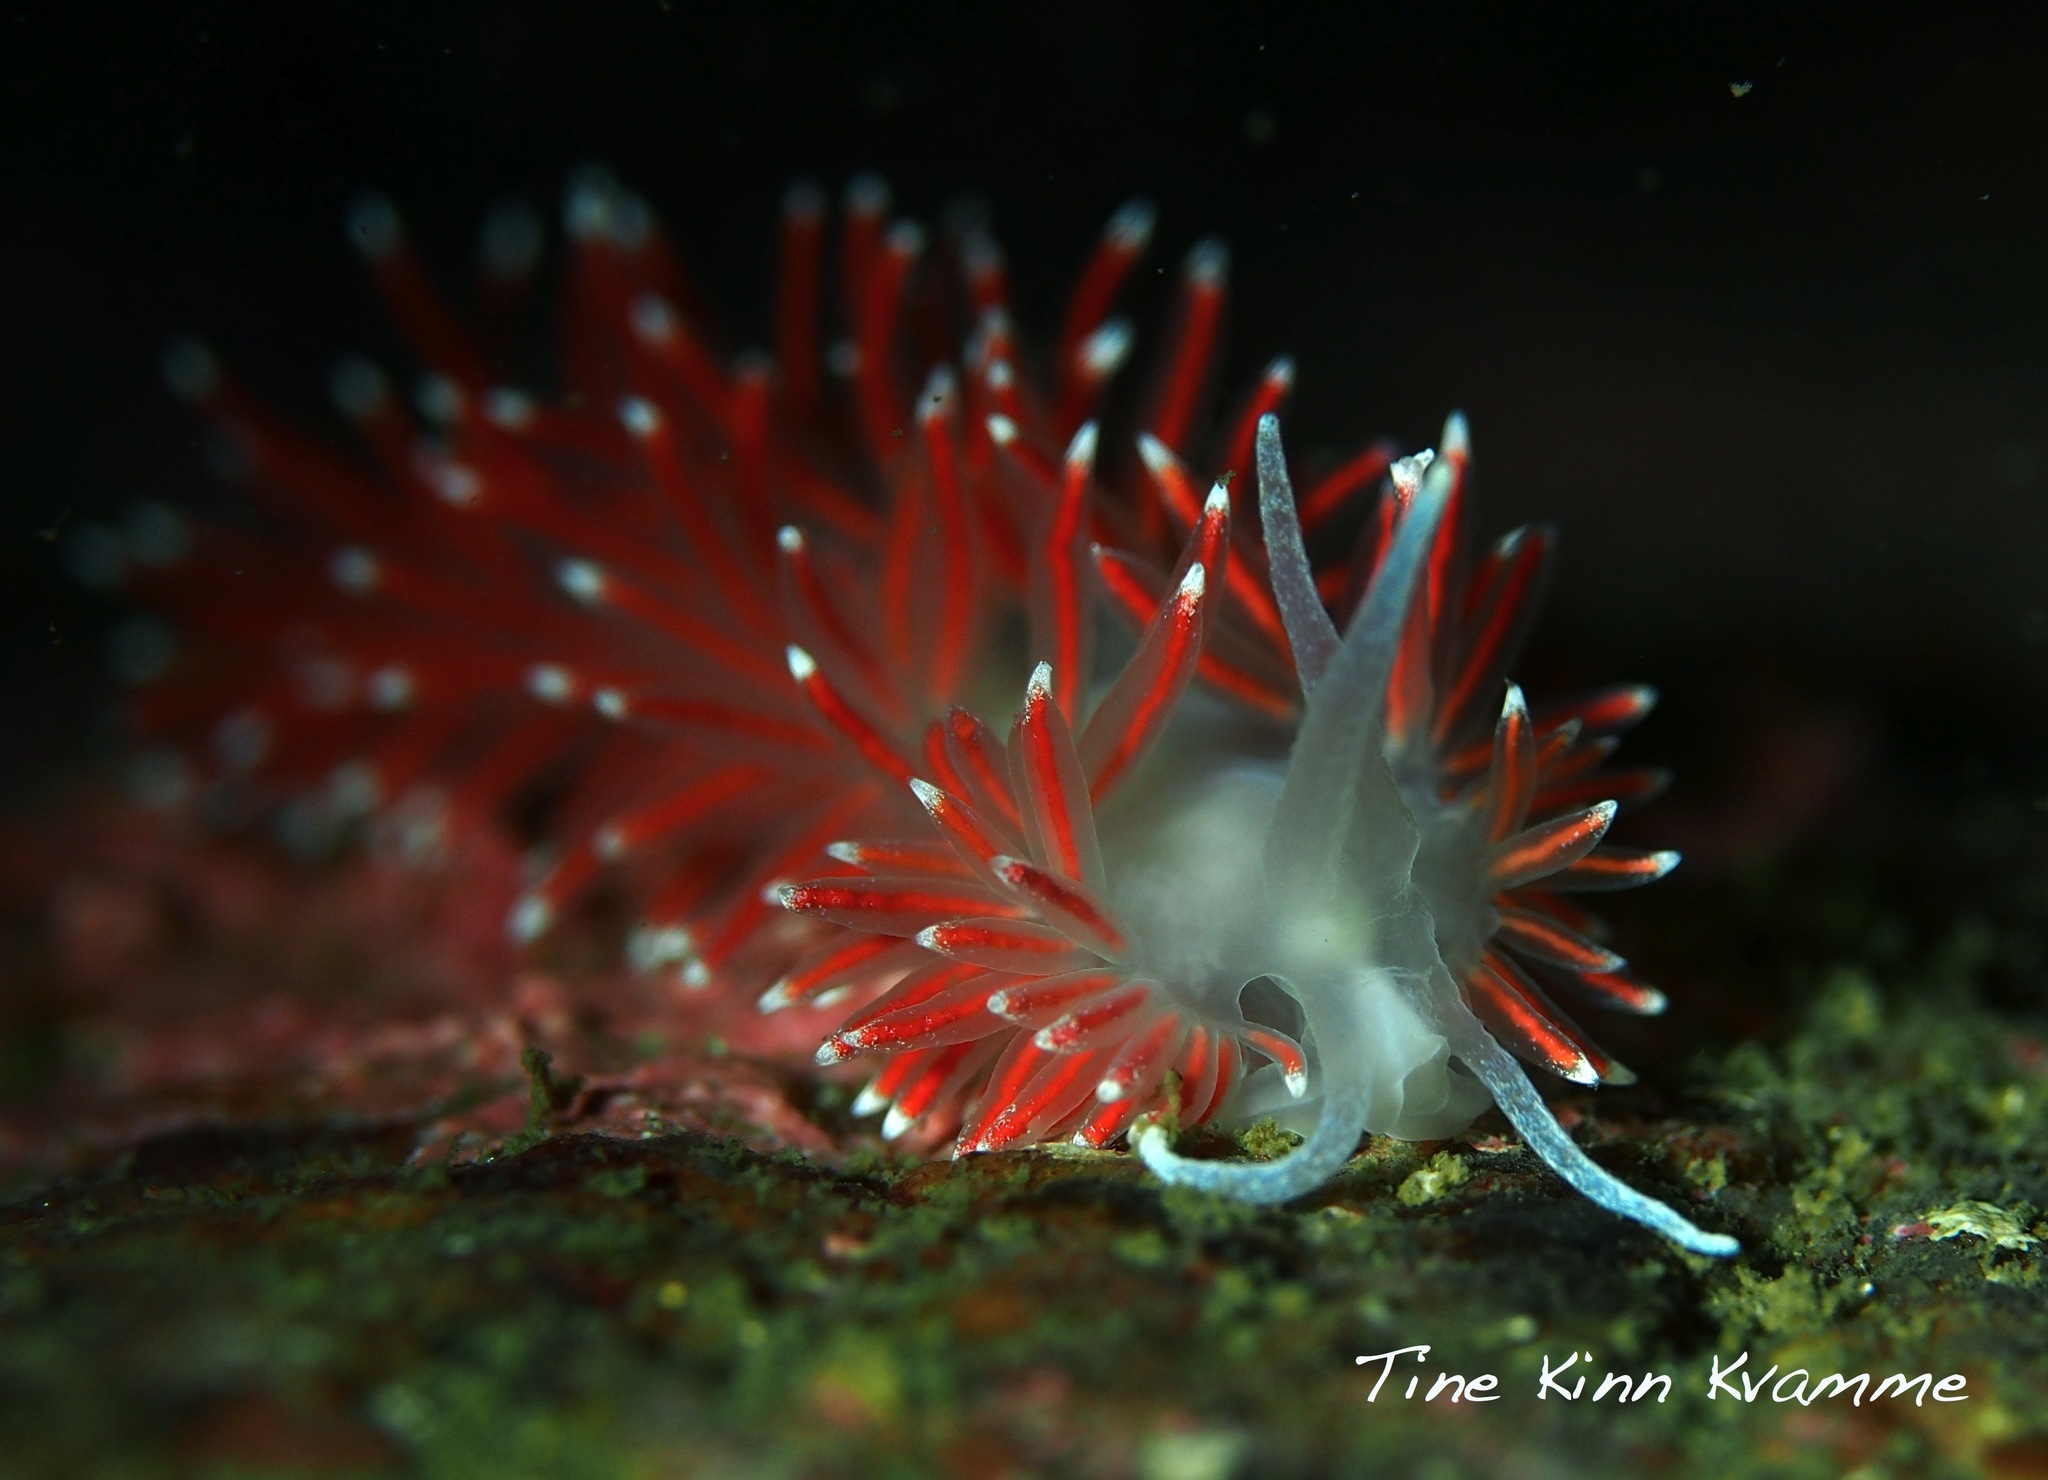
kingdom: Animalia
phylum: Mollusca
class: Gastropoda
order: Nudibranchia
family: Flabellinidae
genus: Carronella
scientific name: Carronella pellucida
